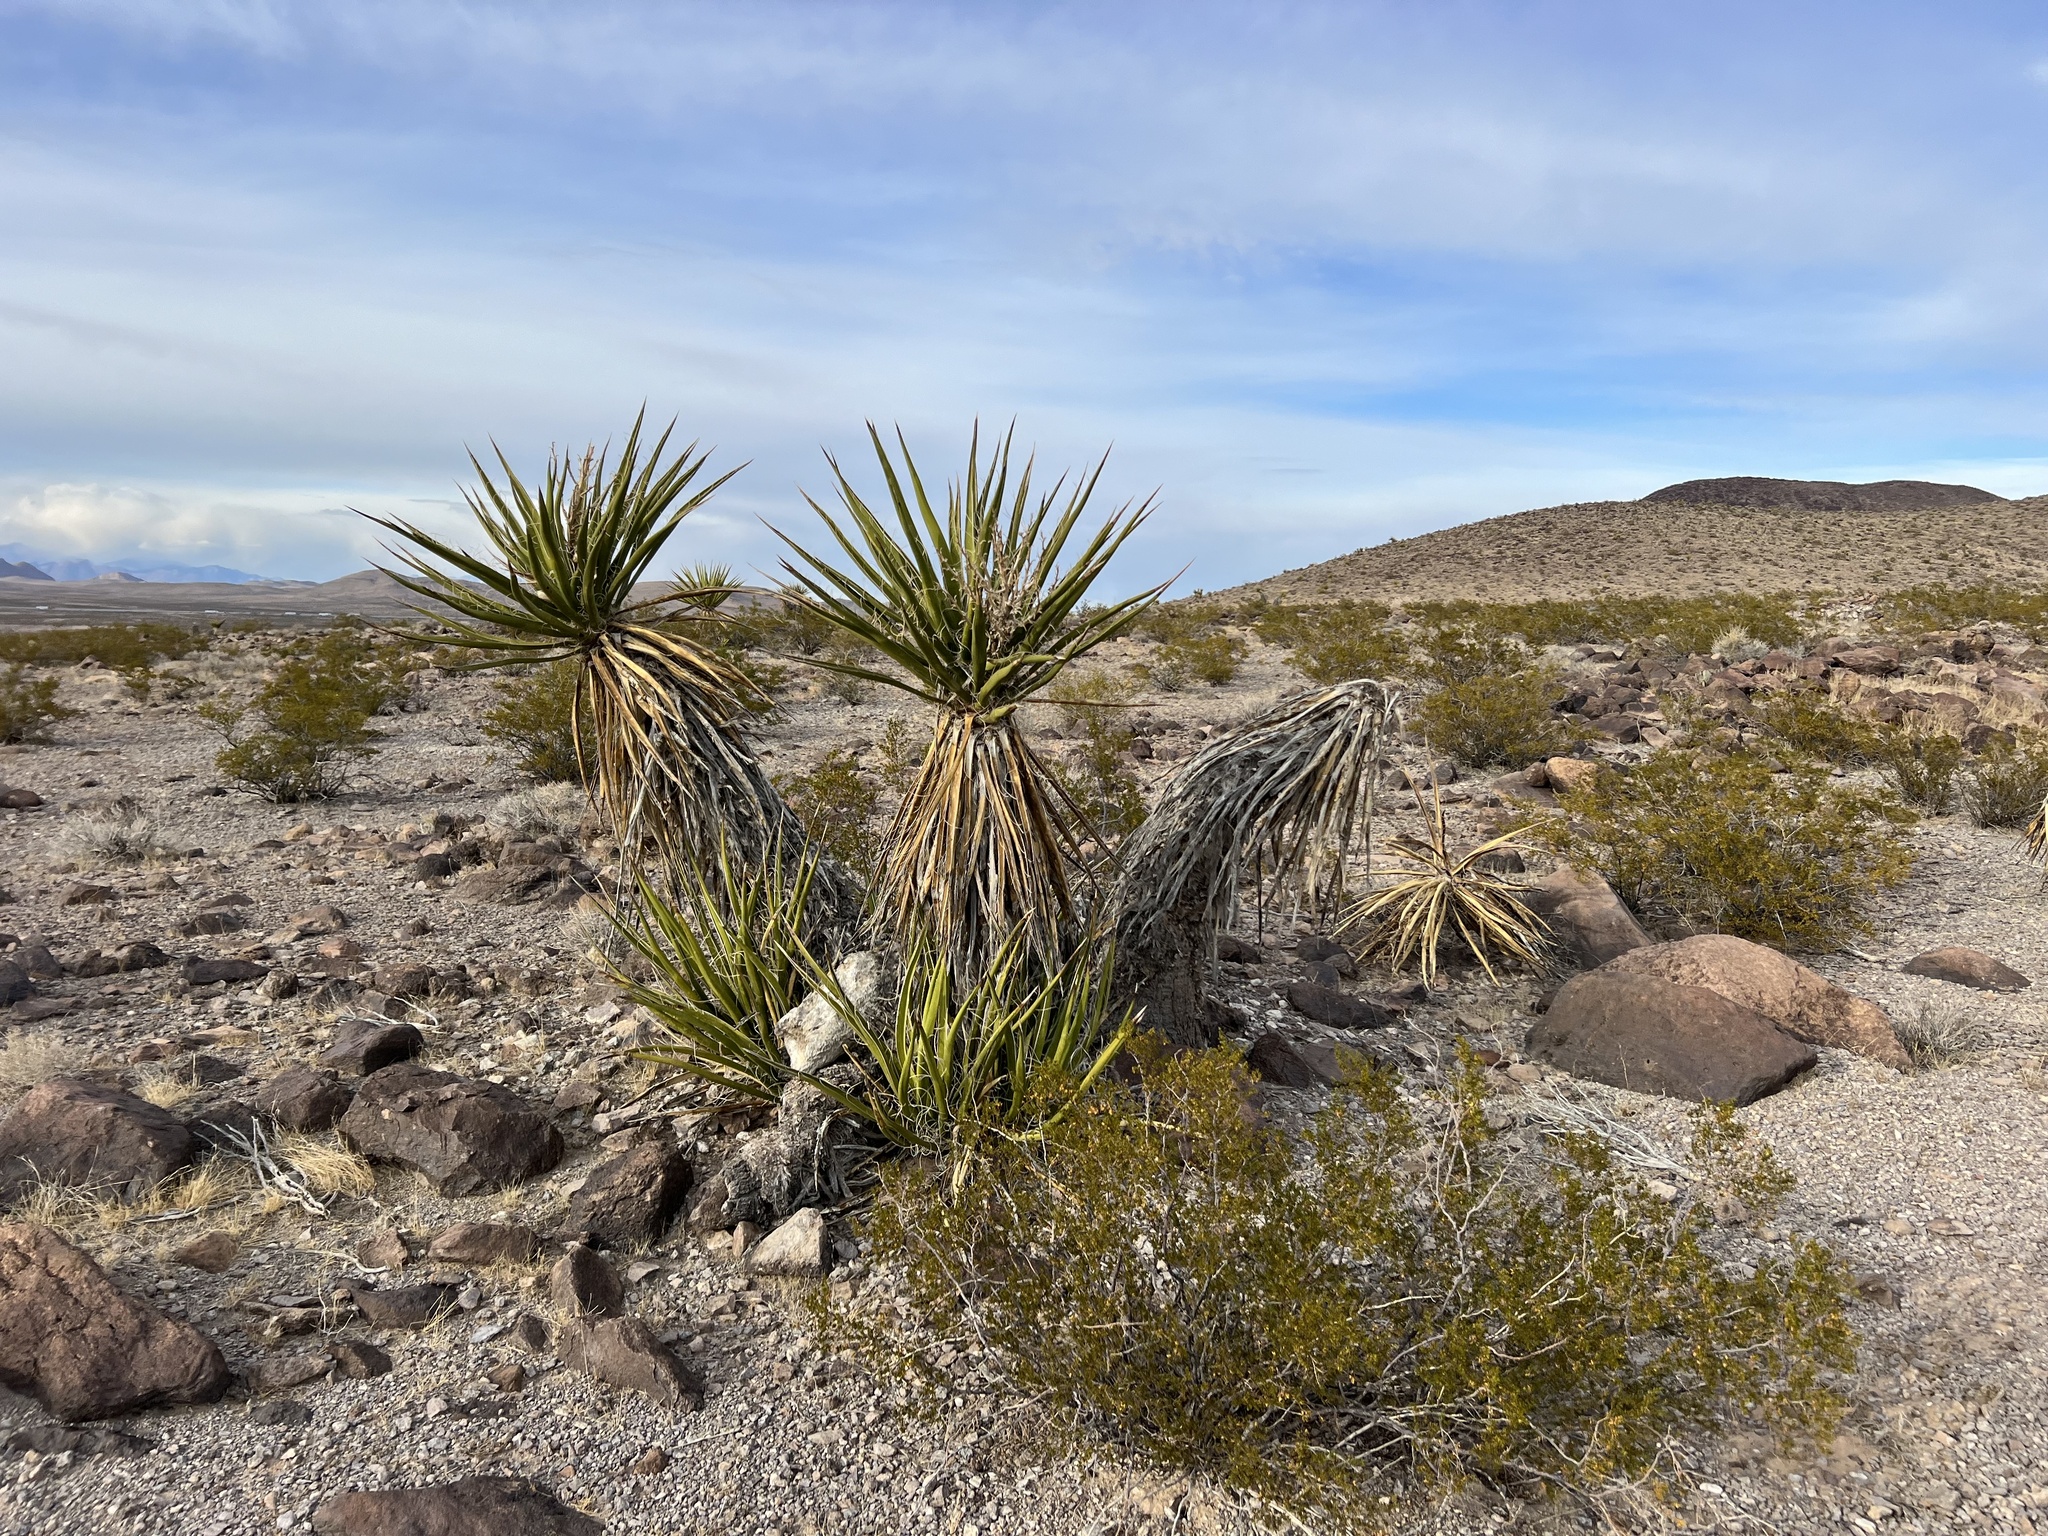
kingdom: Plantae
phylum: Tracheophyta
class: Liliopsida
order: Asparagales
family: Asparagaceae
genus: Yucca
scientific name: Yucca schidigera
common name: Mojave yucca
